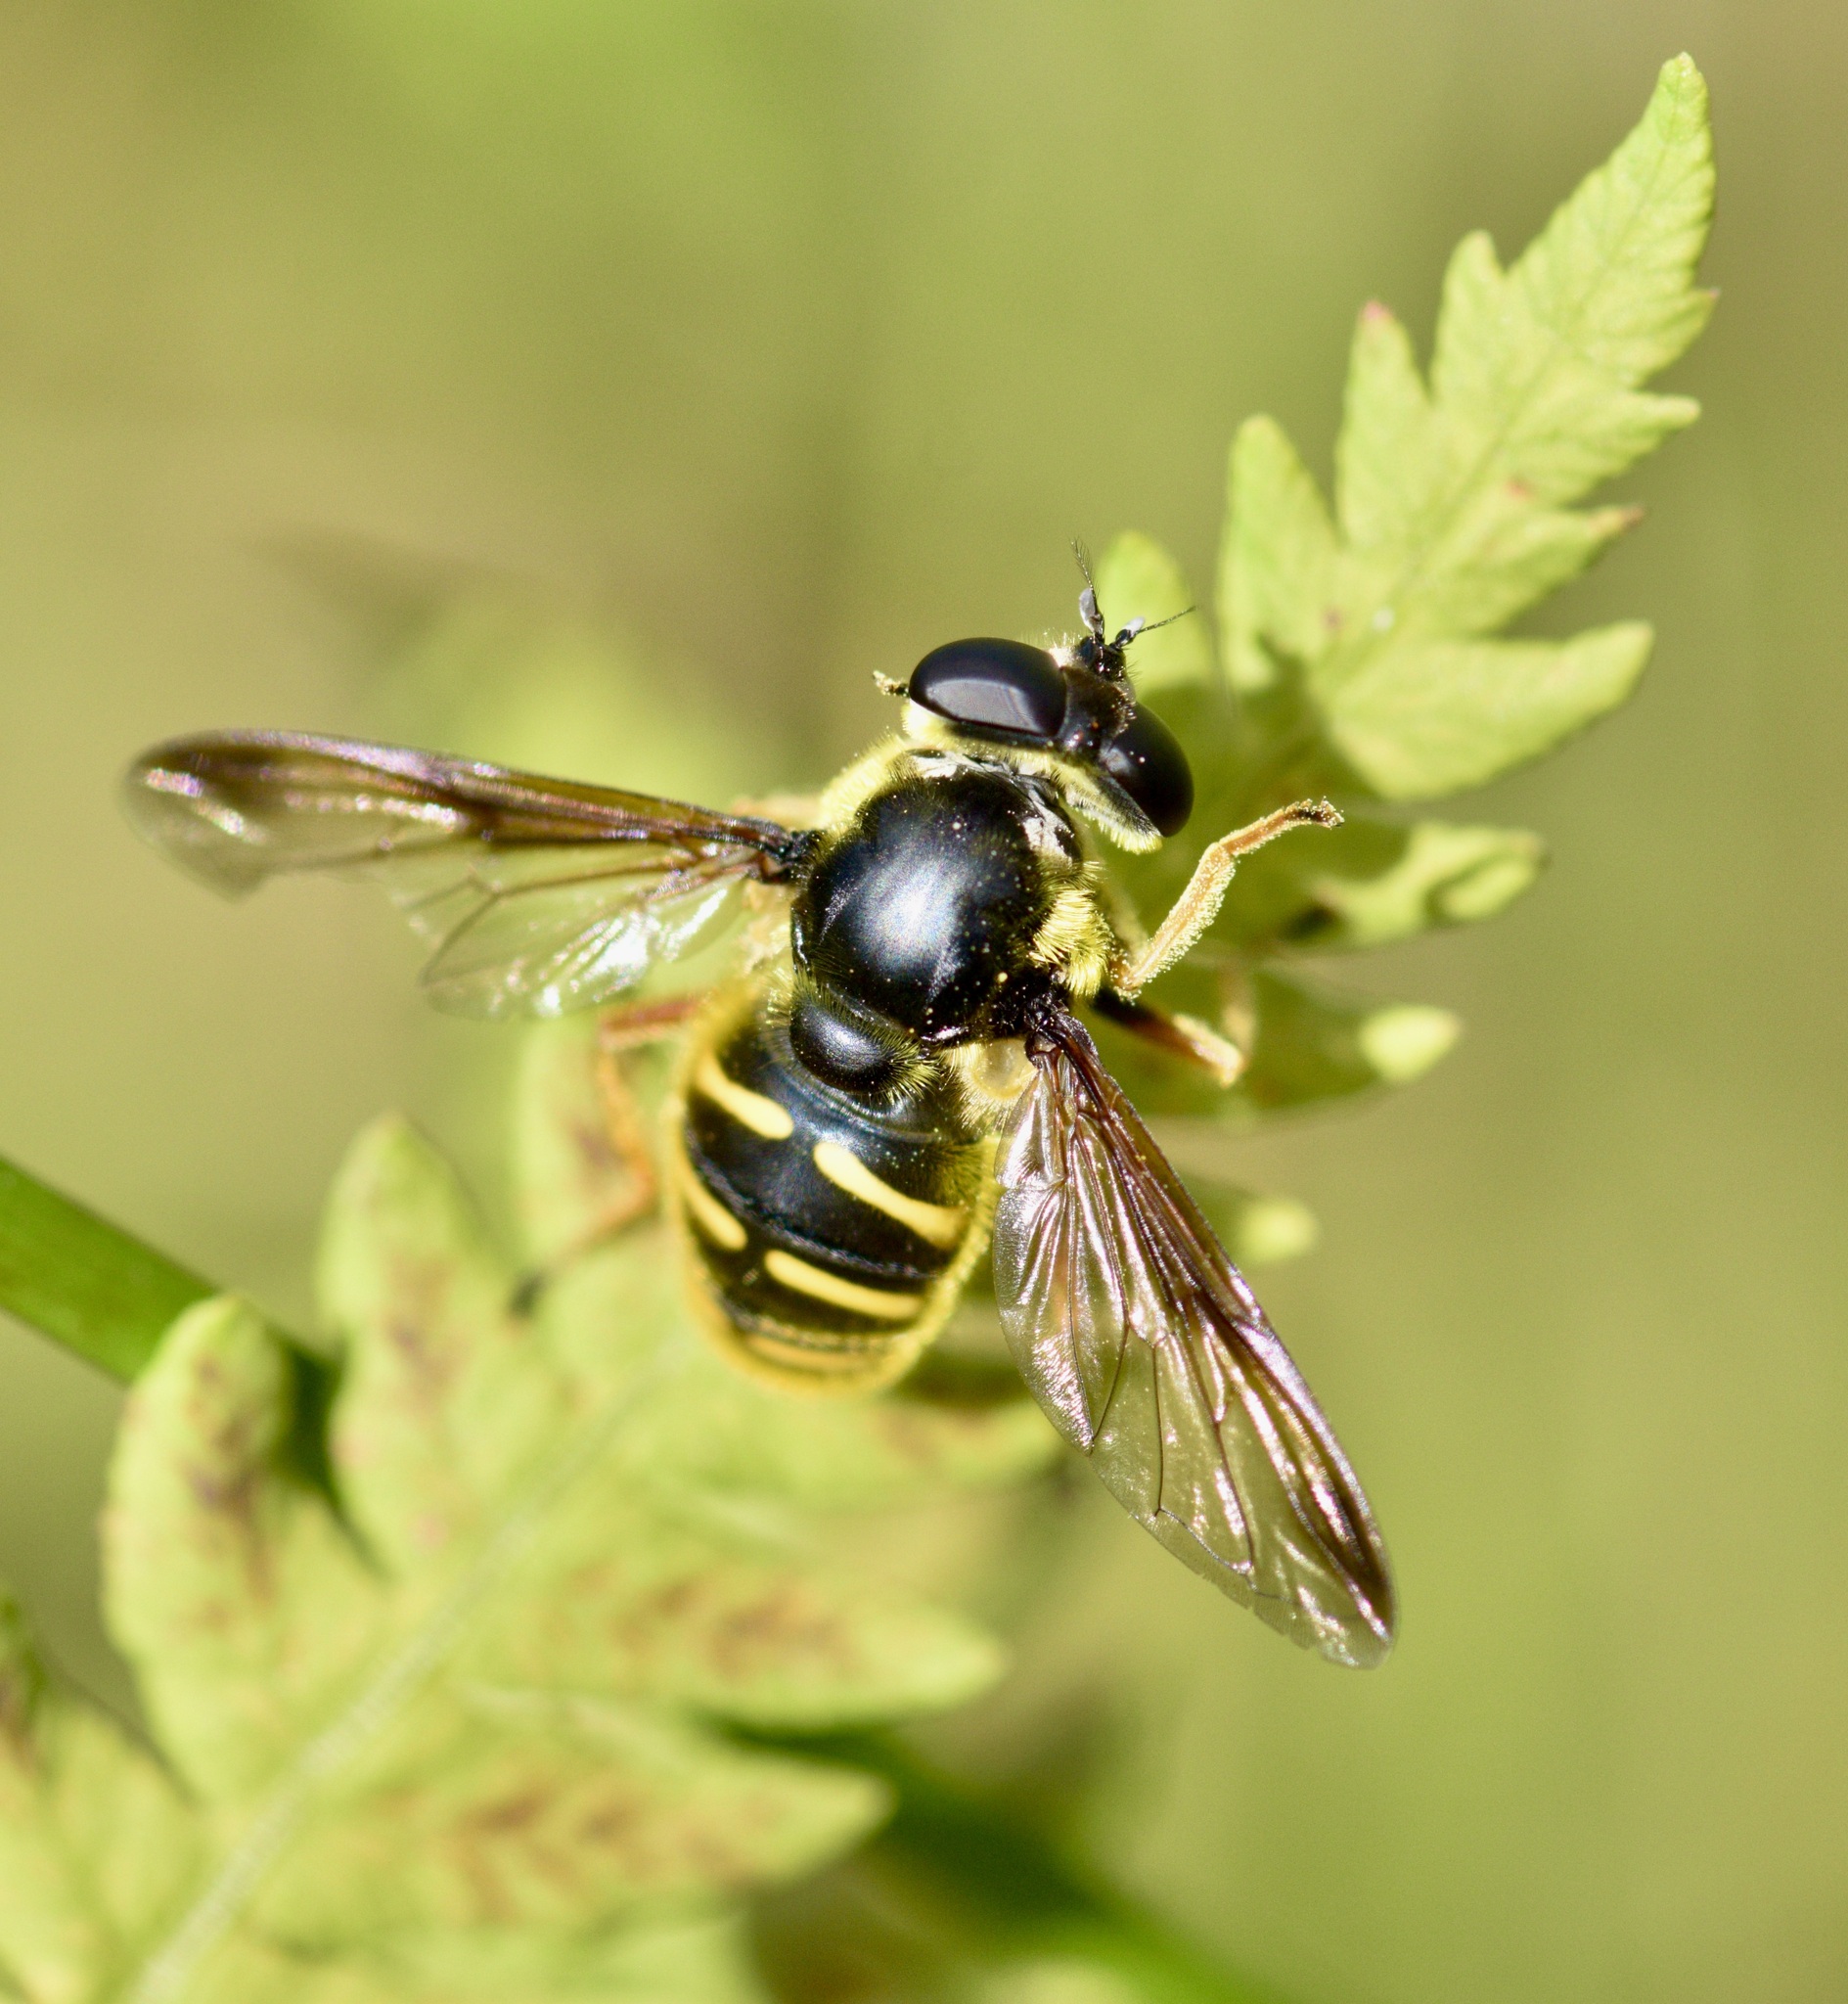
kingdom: Animalia
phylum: Arthropoda
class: Insecta
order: Diptera
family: Syrphidae
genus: Sericomyia
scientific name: Sericomyia chrysotoxoides
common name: Oblique-banded pond fly
